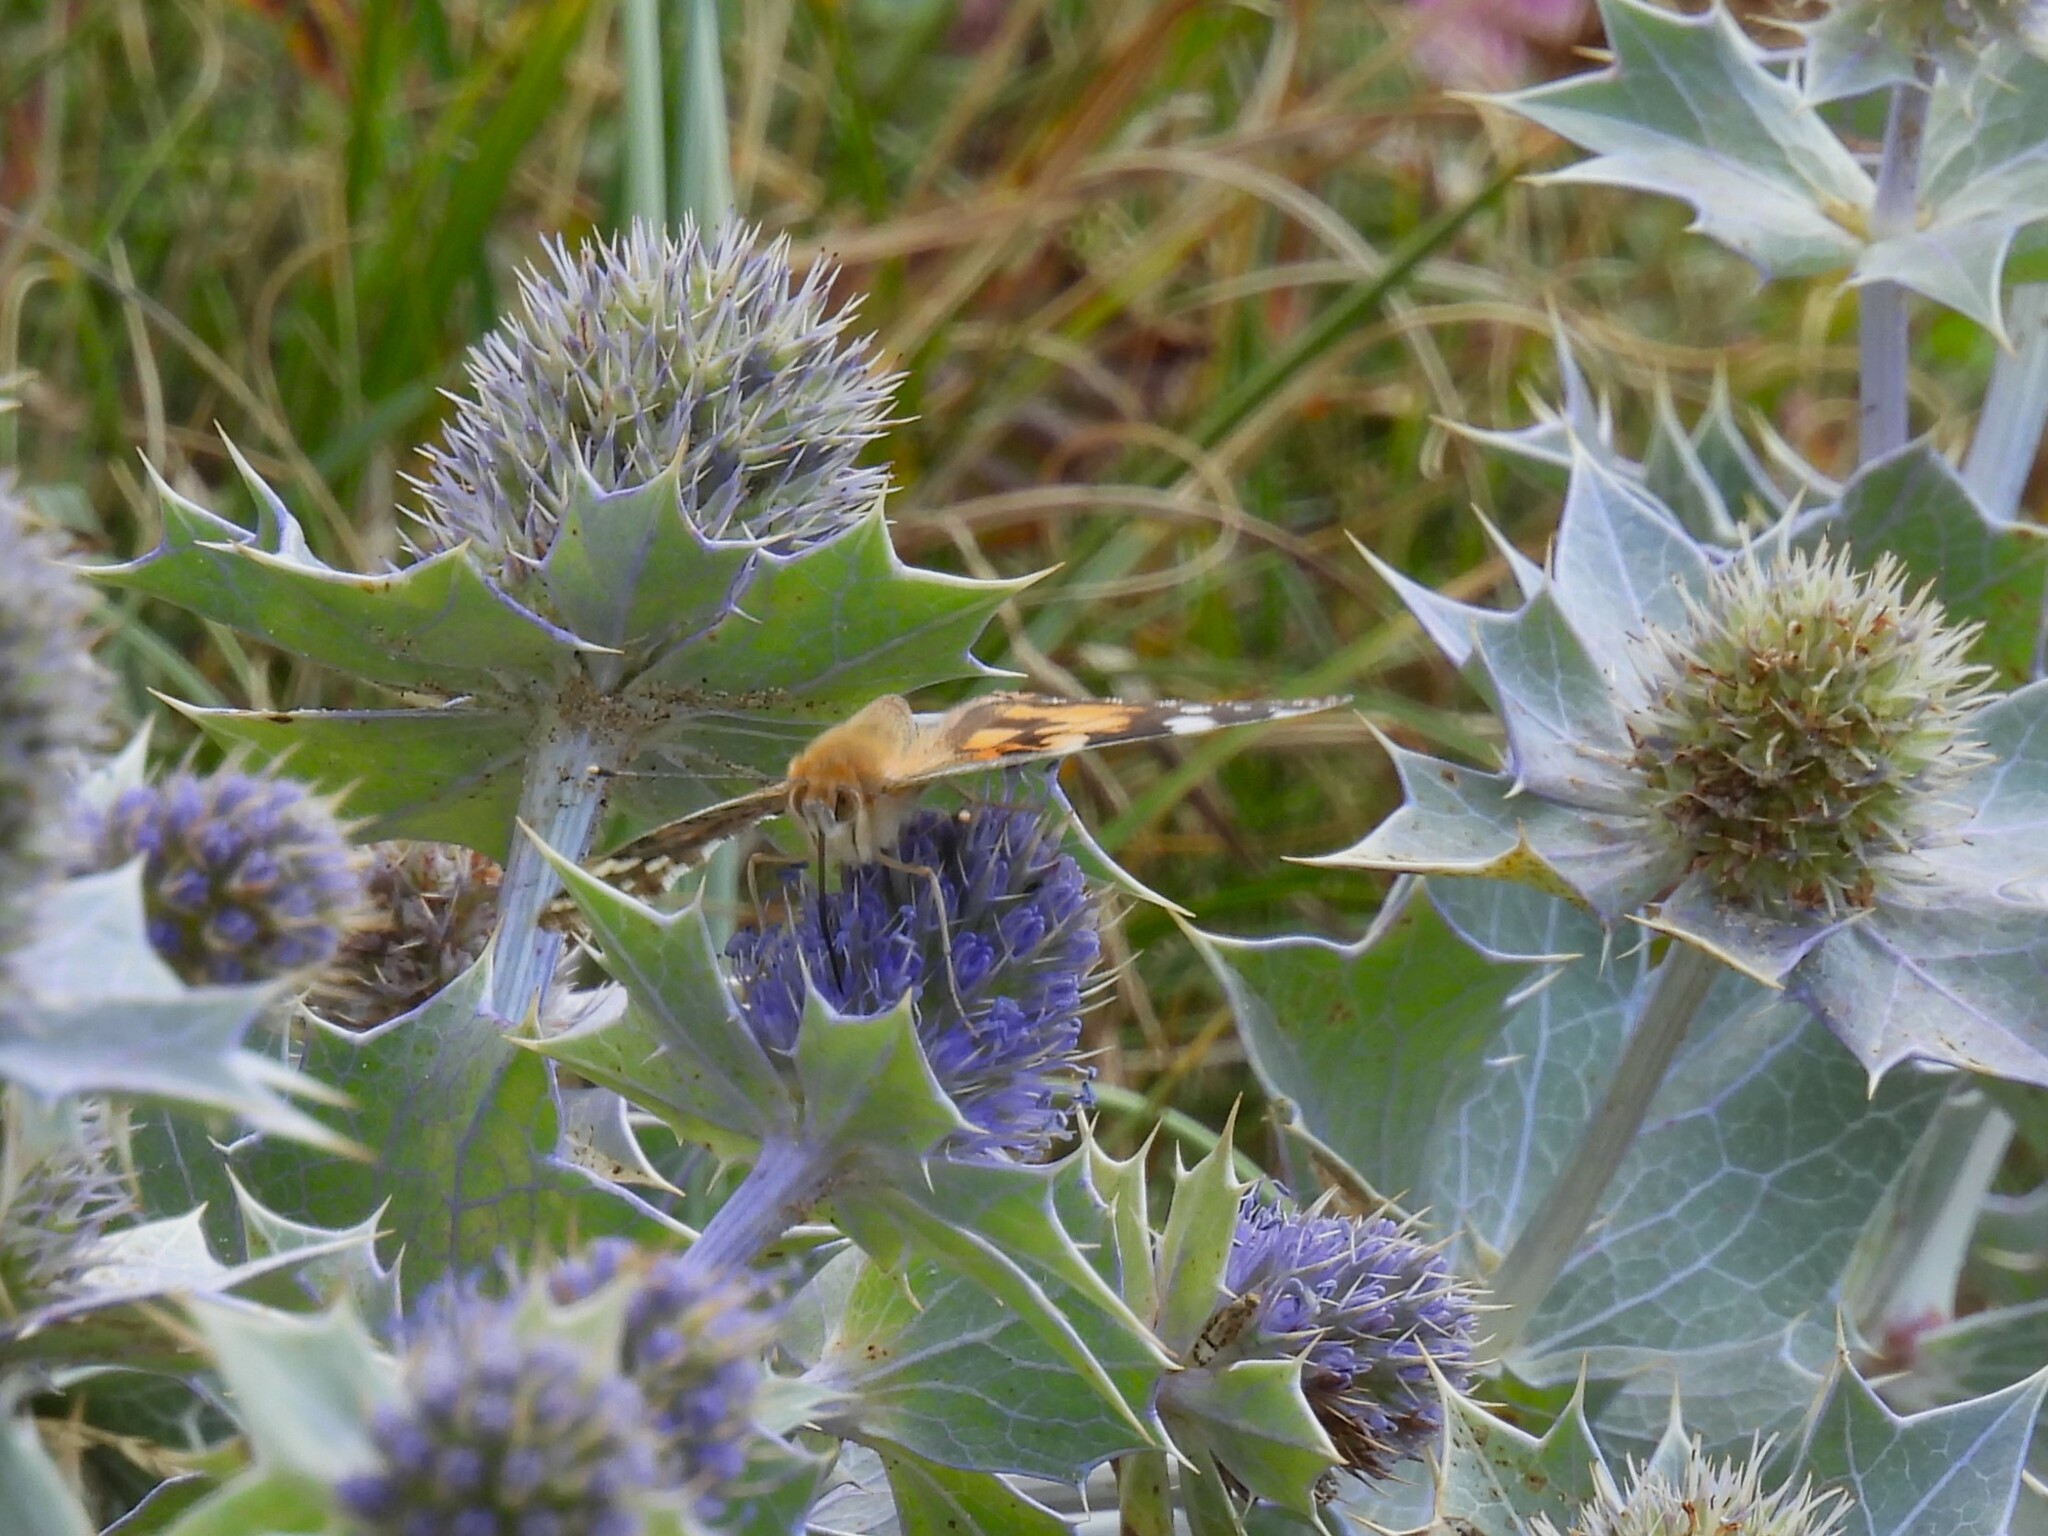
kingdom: Animalia
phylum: Arthropoda
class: Insecta
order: Lepidoptera
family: Nymphalidae
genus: Vanessa
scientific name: Vanessa cardui
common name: Painted lady
